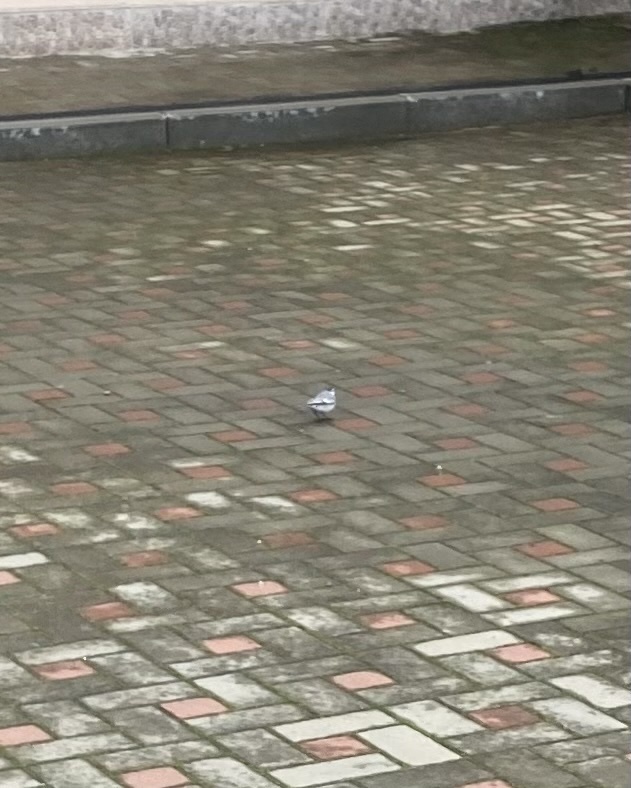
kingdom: Animalia
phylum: Chordata
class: Aves
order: Passeriformes
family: Motacillidae
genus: Motacilla
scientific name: Motacilla alba
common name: White wagtail
